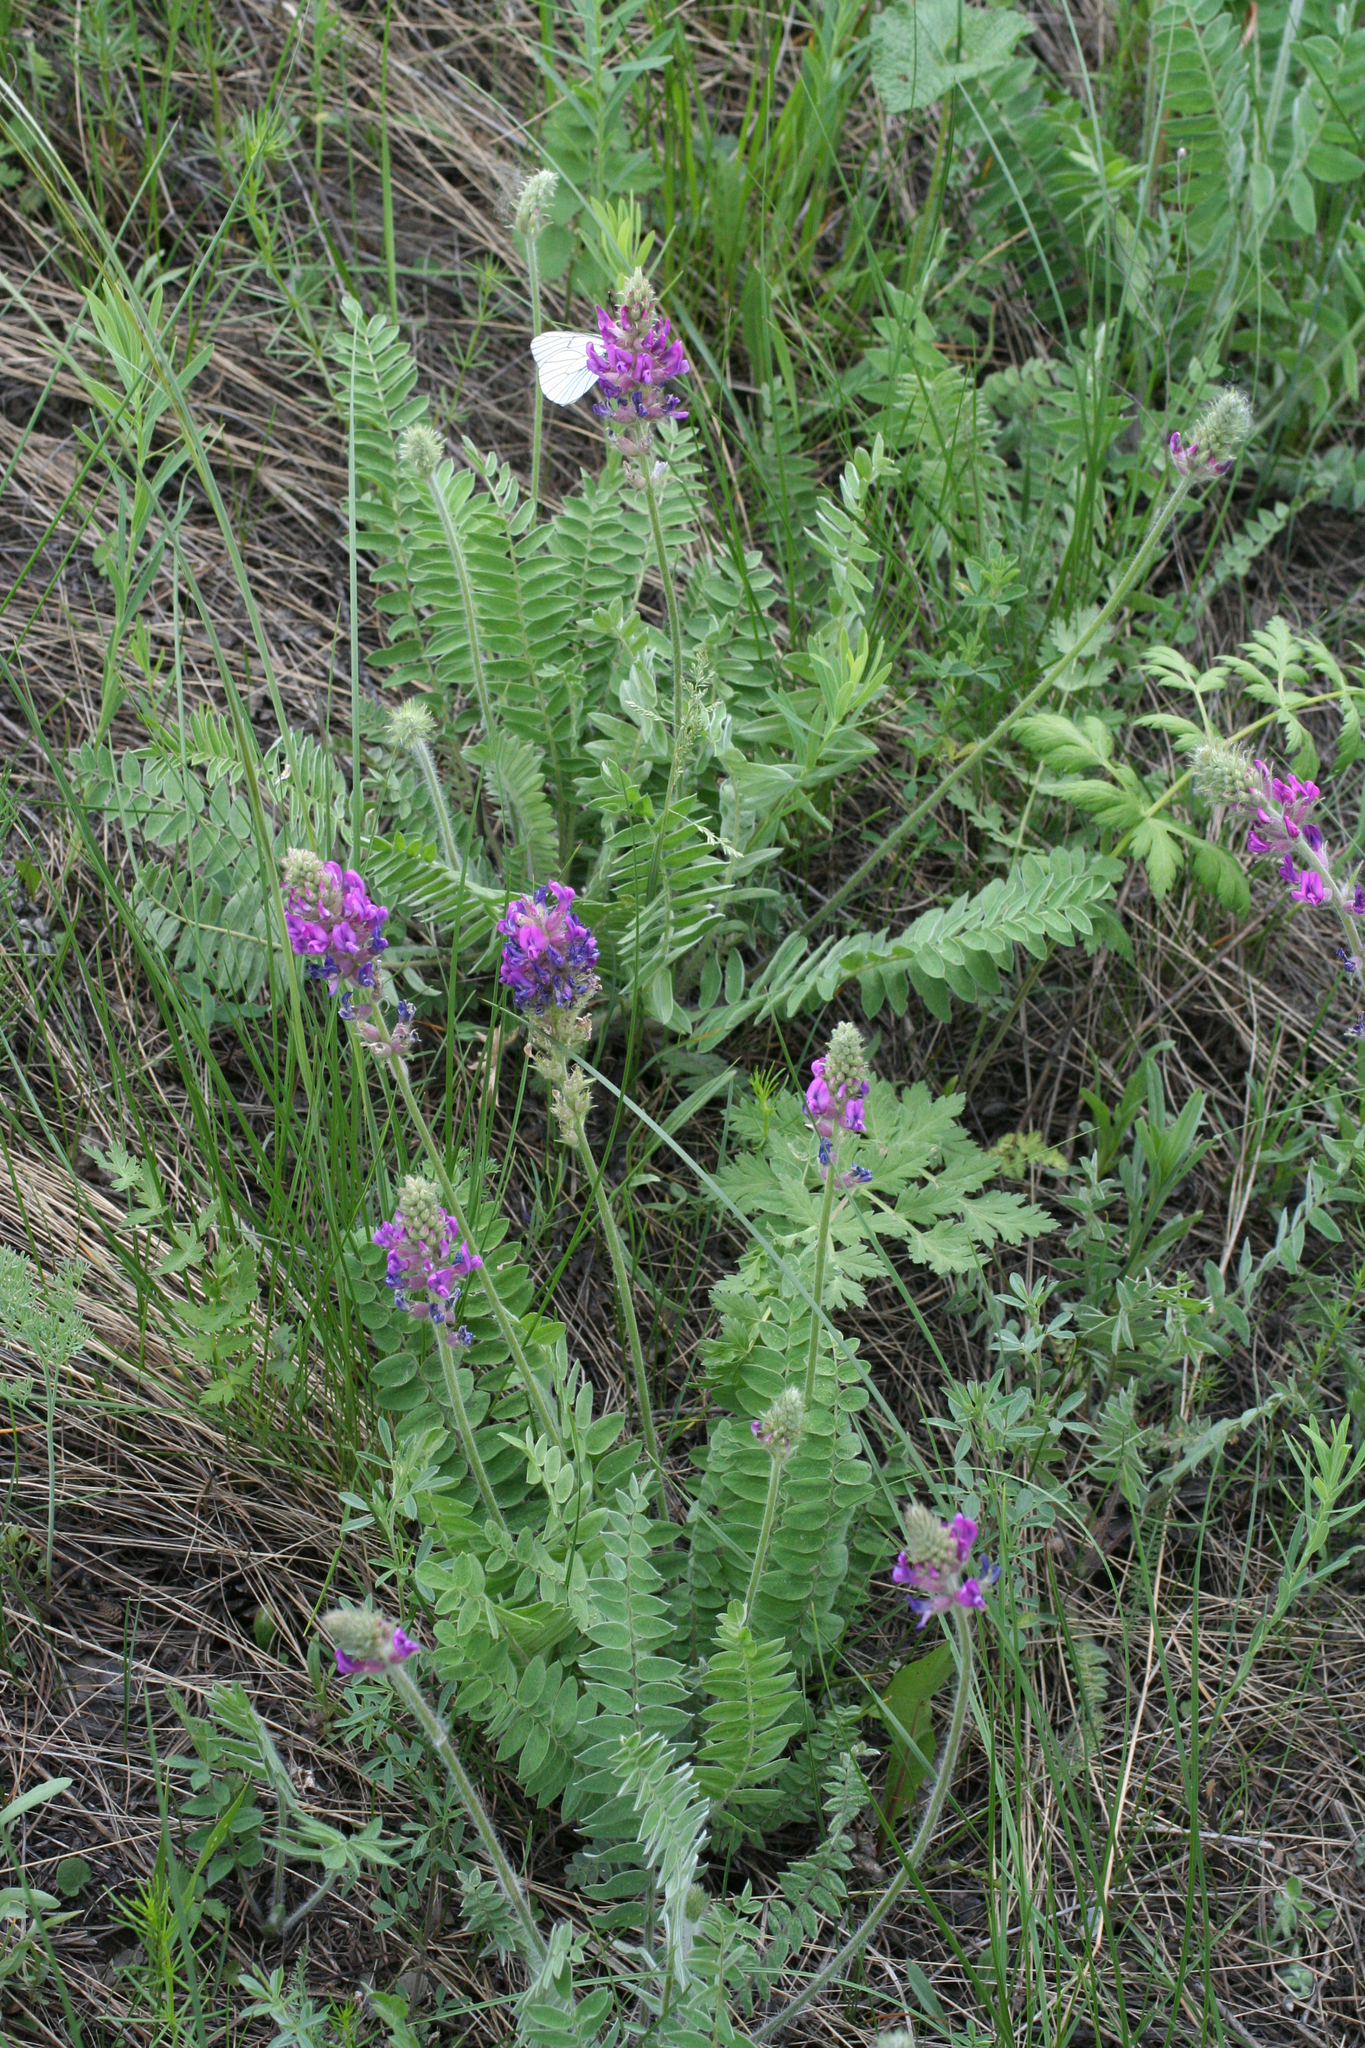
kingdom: Plantae
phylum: Tracheophyta
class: Magnoliopsida
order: Fabales
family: Fabaceae
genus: Oxytropis
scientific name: Oxytropis campanulata
